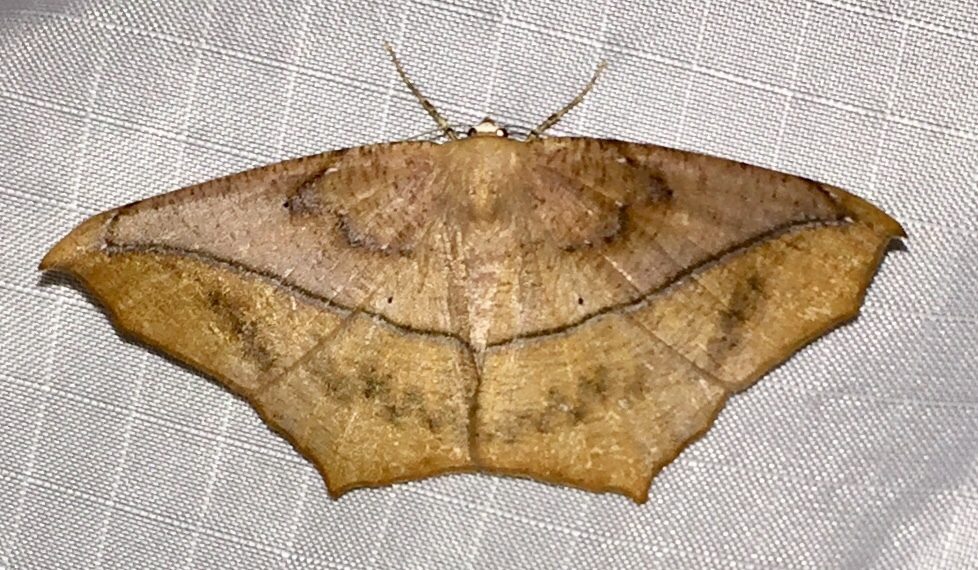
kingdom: Animalia
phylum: Arthropoda
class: Insecta
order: Lepidoptera
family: Geometridae
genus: Prochoerodes
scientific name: Prochoerodes lineola
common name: Large maple spanworm
